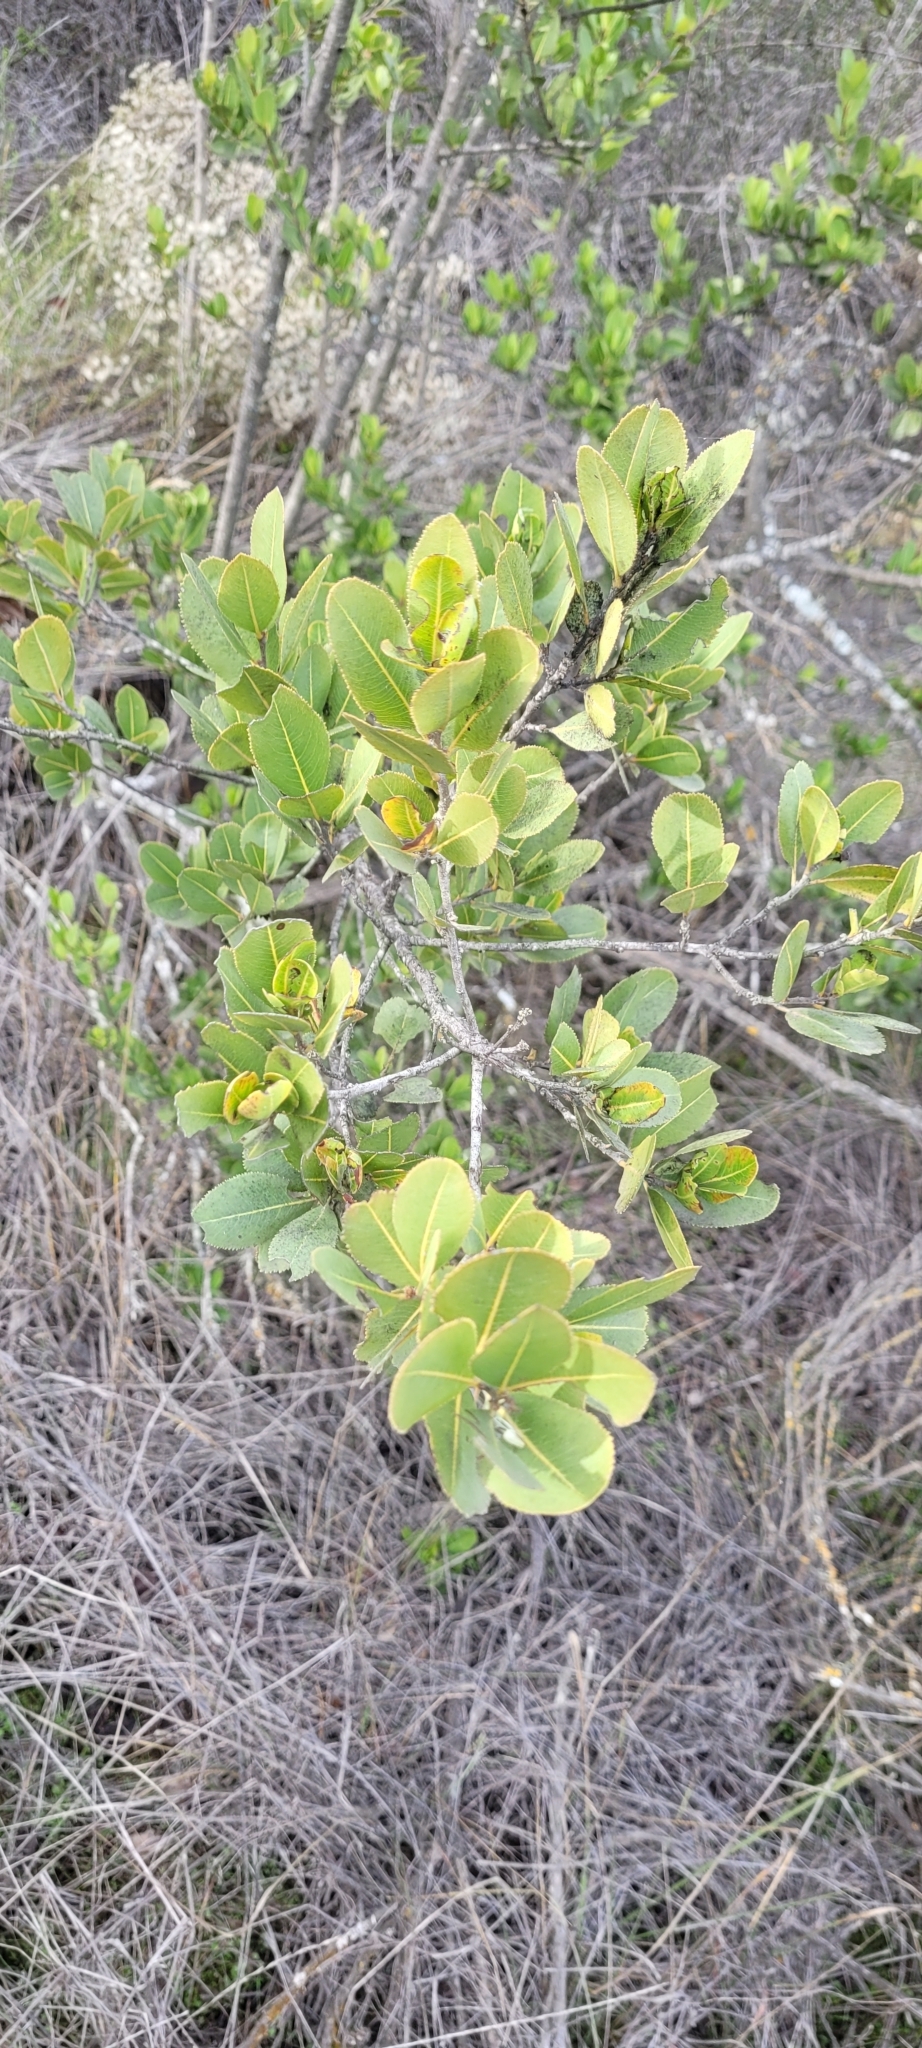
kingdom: Plantae
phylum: Tracheophyta
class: Magnoliopsida
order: Rosales
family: Rosaceae
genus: Kageneckia
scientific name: Kageneckia oblonga
